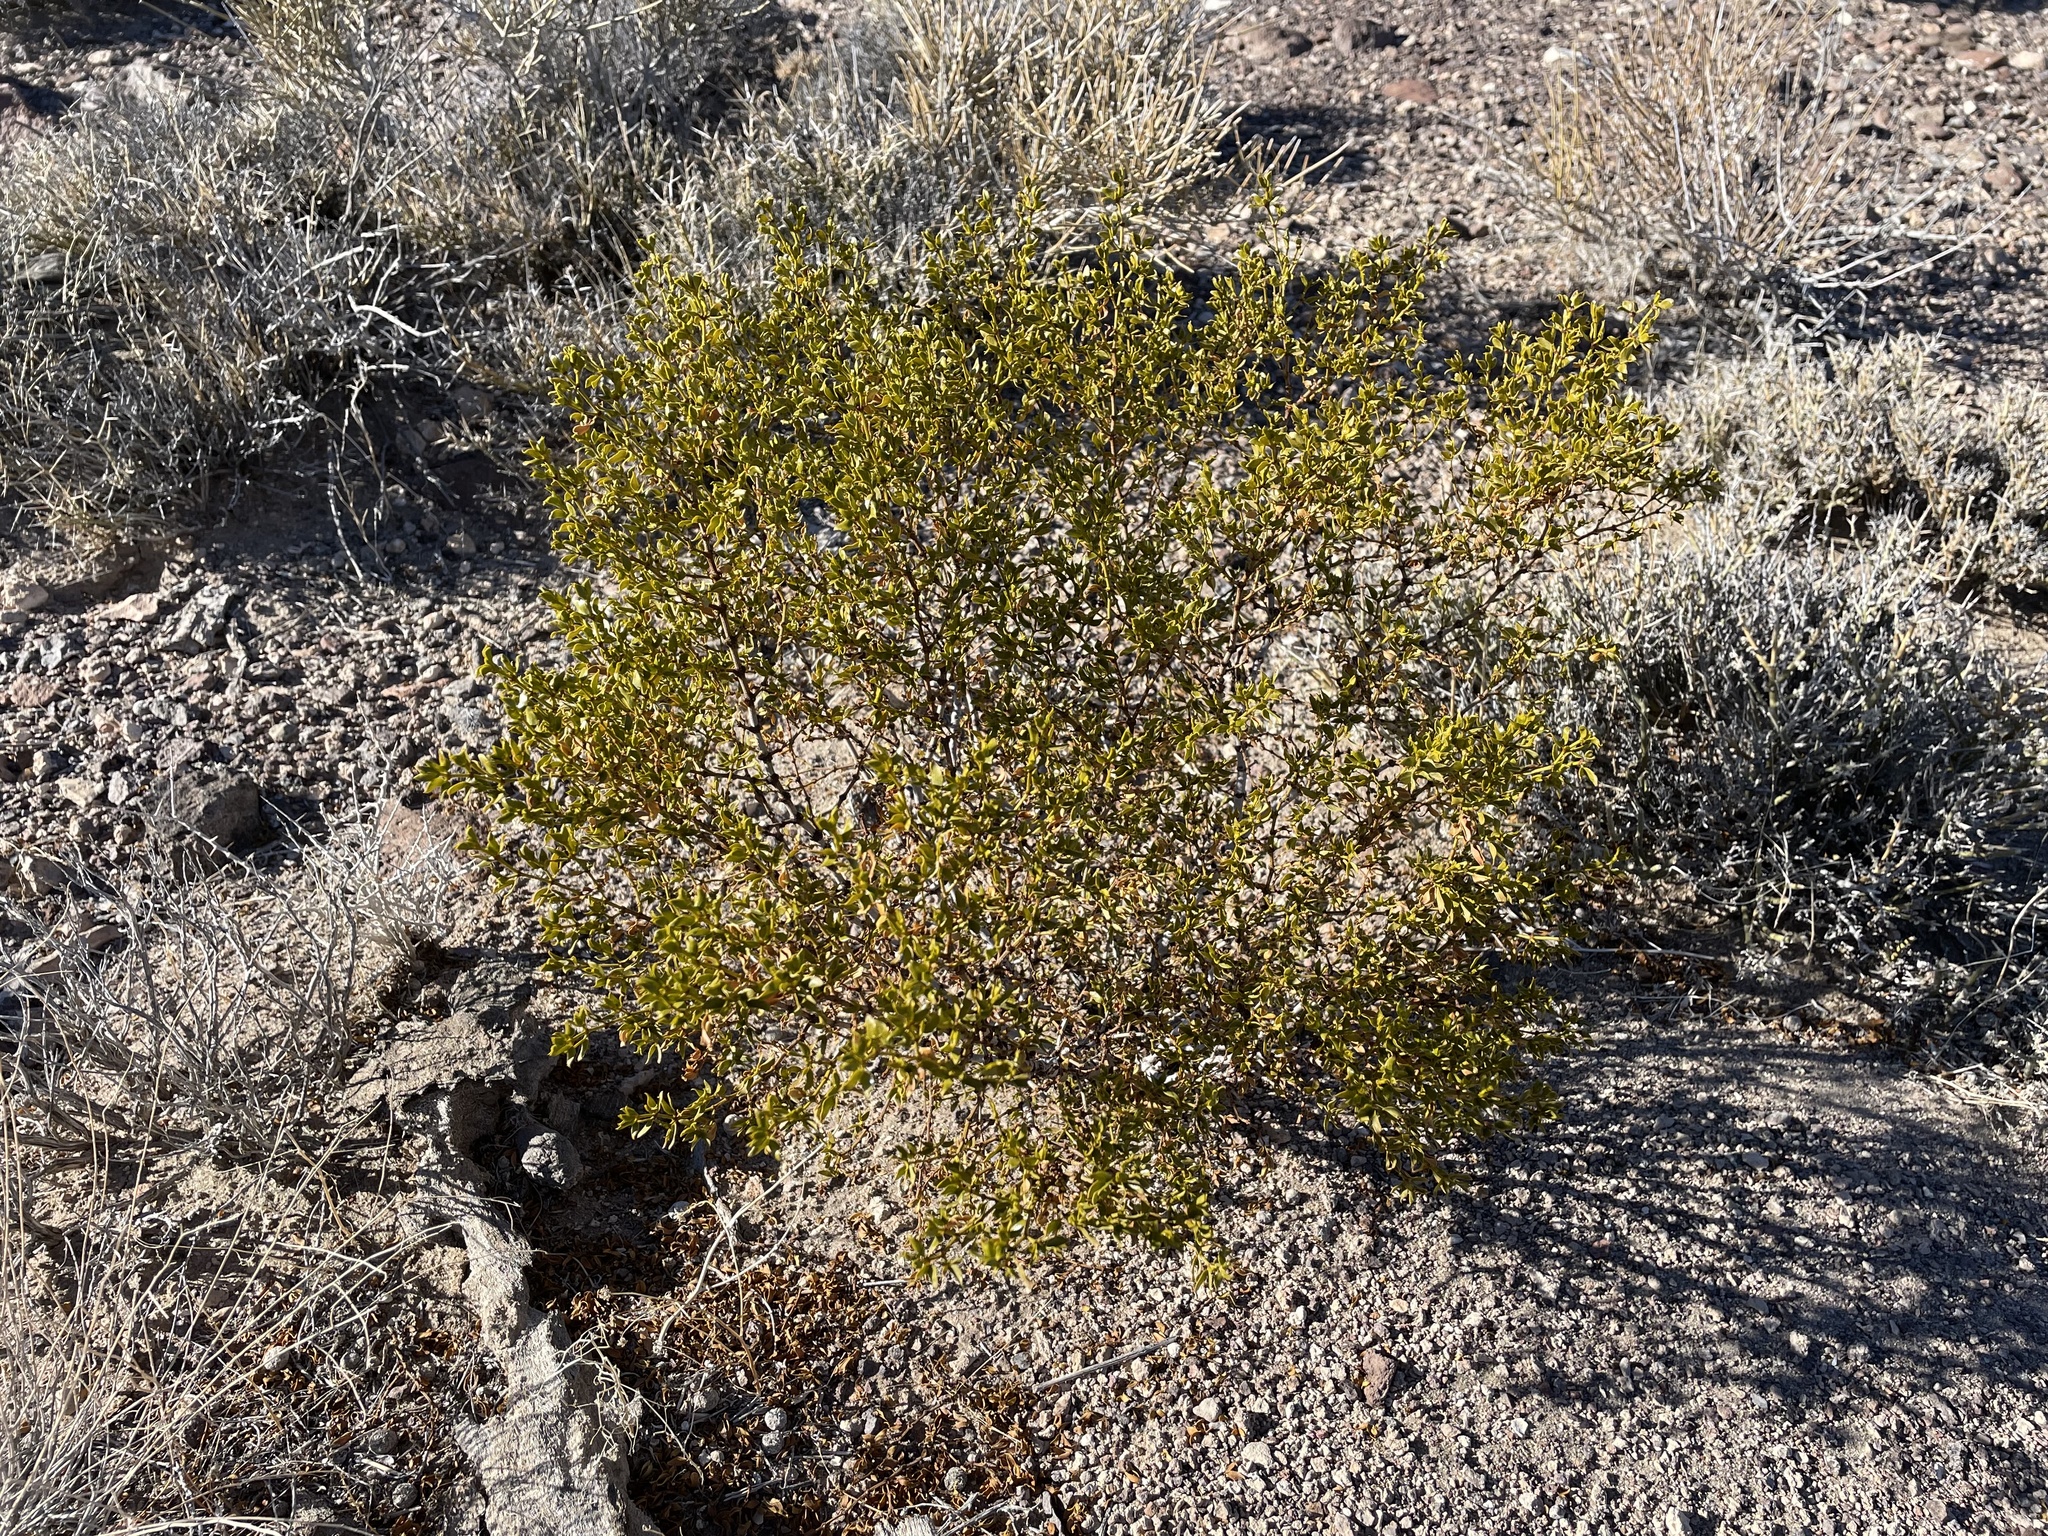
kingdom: Plantae
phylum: Tracheophyta
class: Magnoliopsida
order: Zygophyllales
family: Zygophyllaceae
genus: Larrea
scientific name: Larrea tridentata
